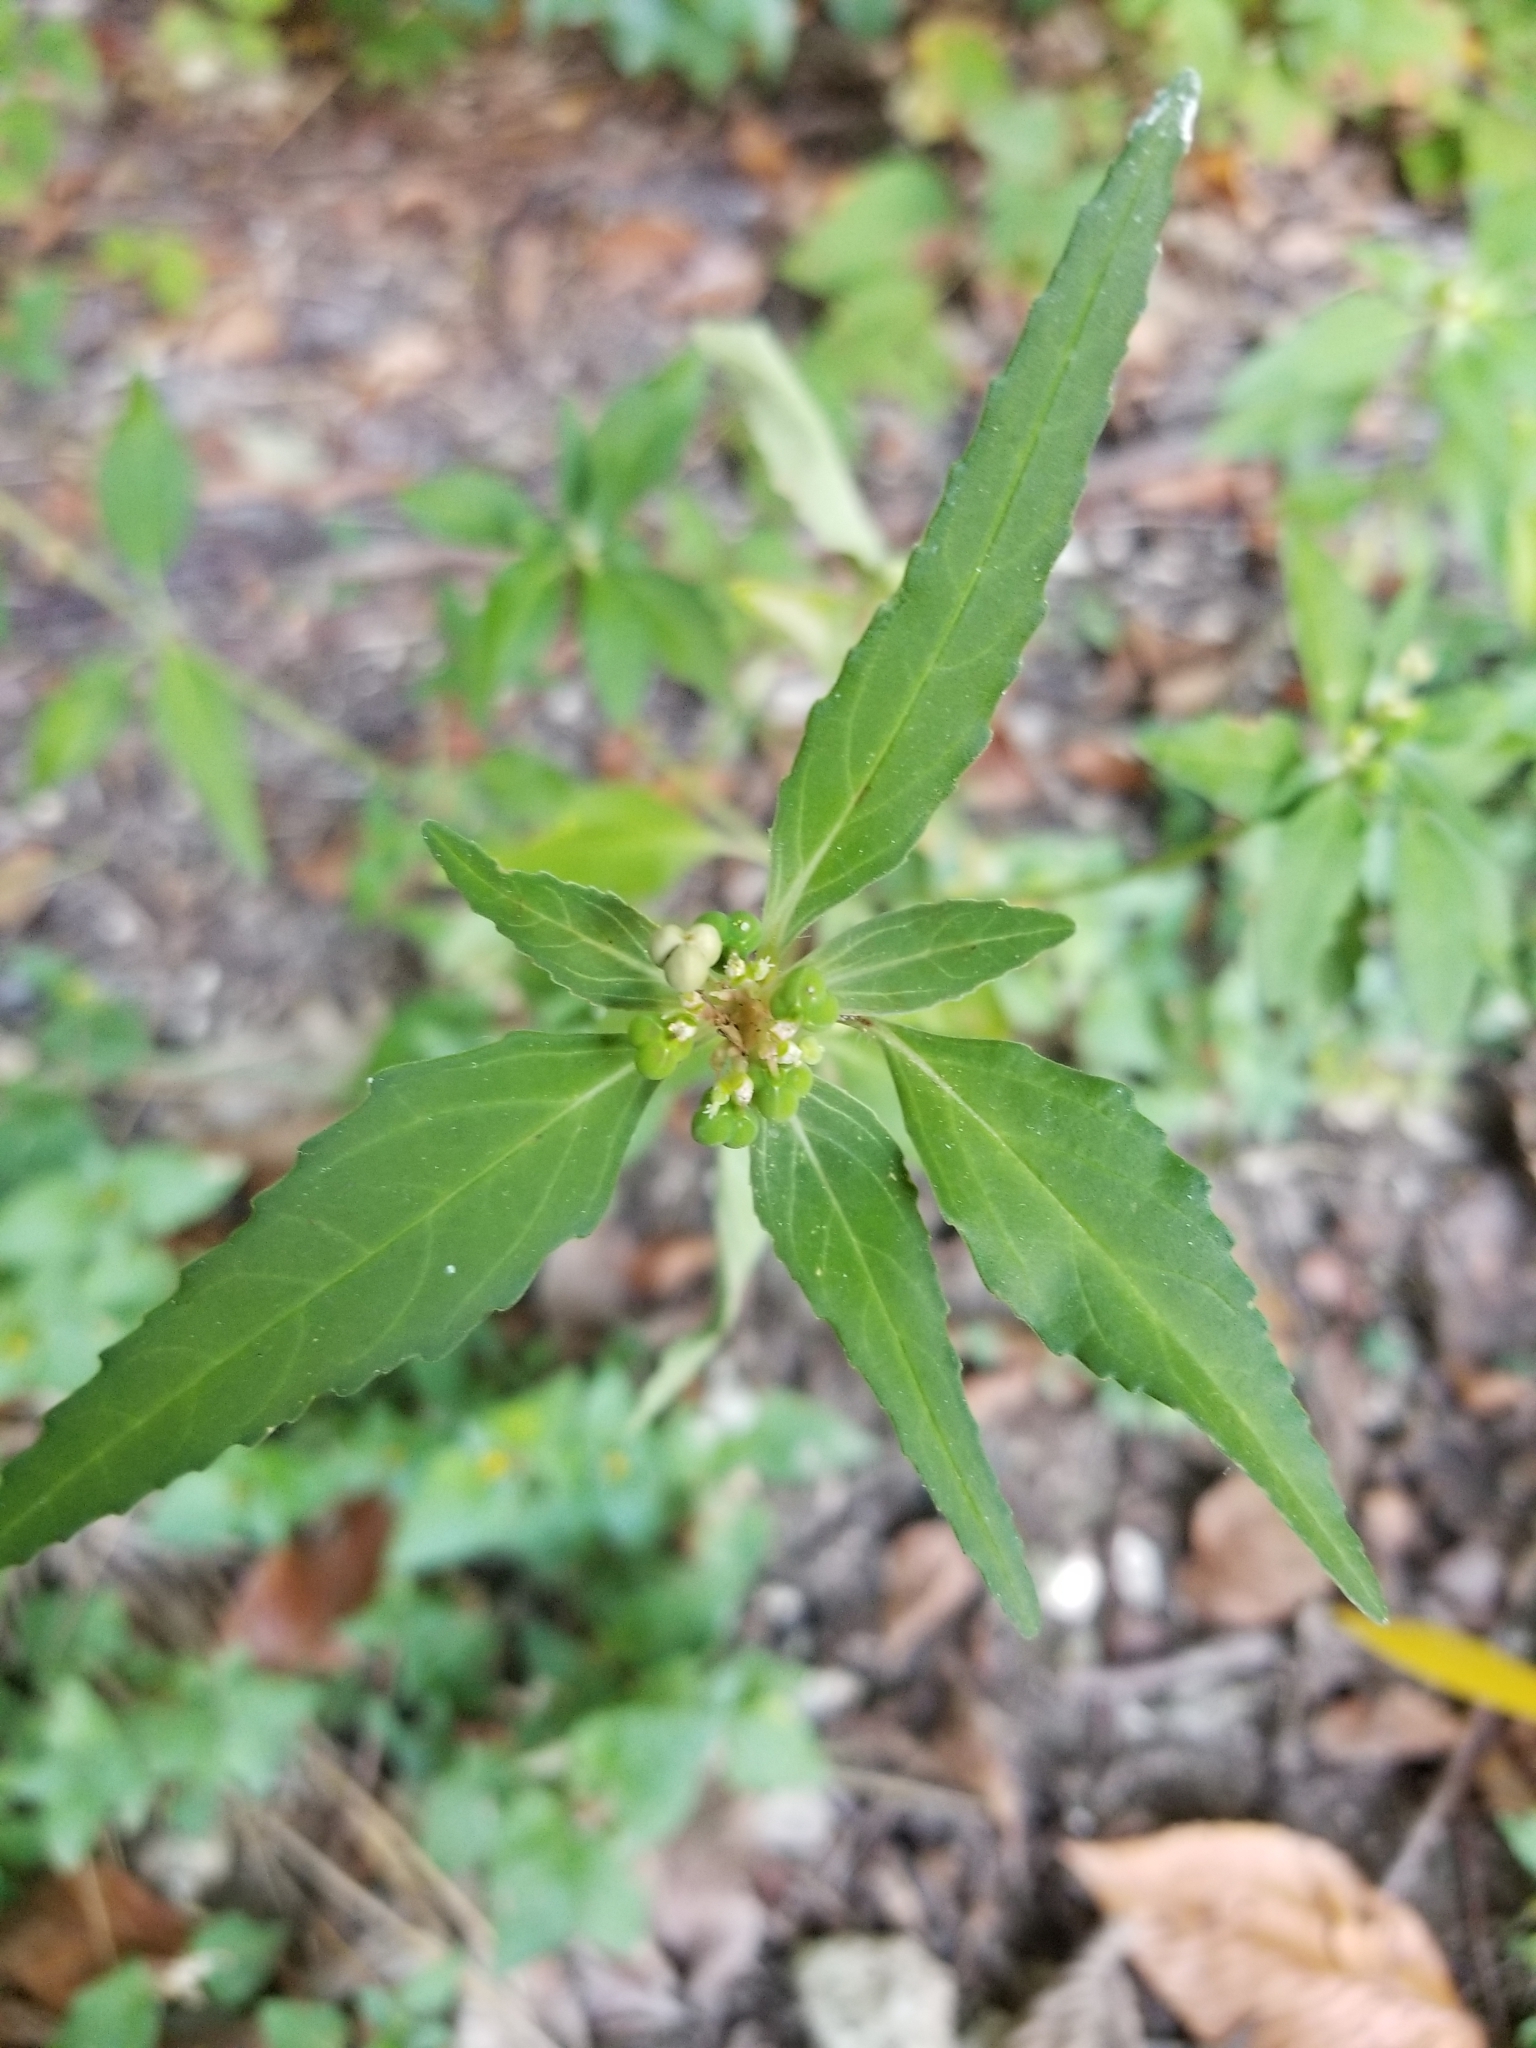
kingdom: Plantae
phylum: Tracheophyta
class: Magnoliopsida
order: Malpighiales
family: Euphorbiaceae
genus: Euphorbia
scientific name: Euphorbia dentata
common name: Dentate spurge
